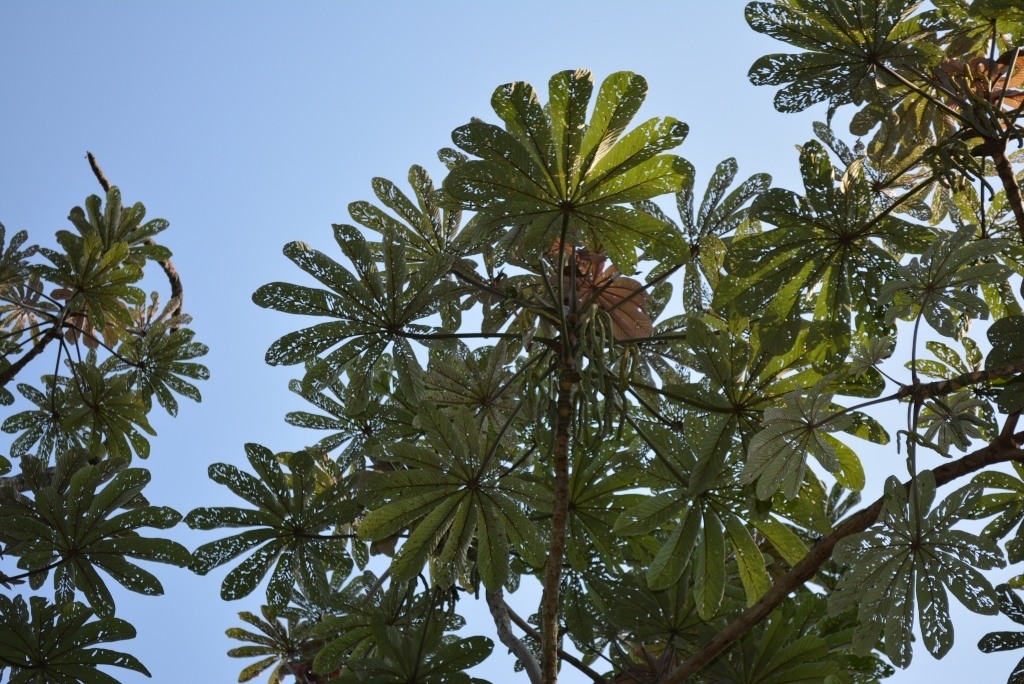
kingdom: Plantae
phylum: Tracheophyta
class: Magnoliopsida
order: Rosales
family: Urticaceae
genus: Cecropia
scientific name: Cecropia obtusifolia
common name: Trumpet tree
